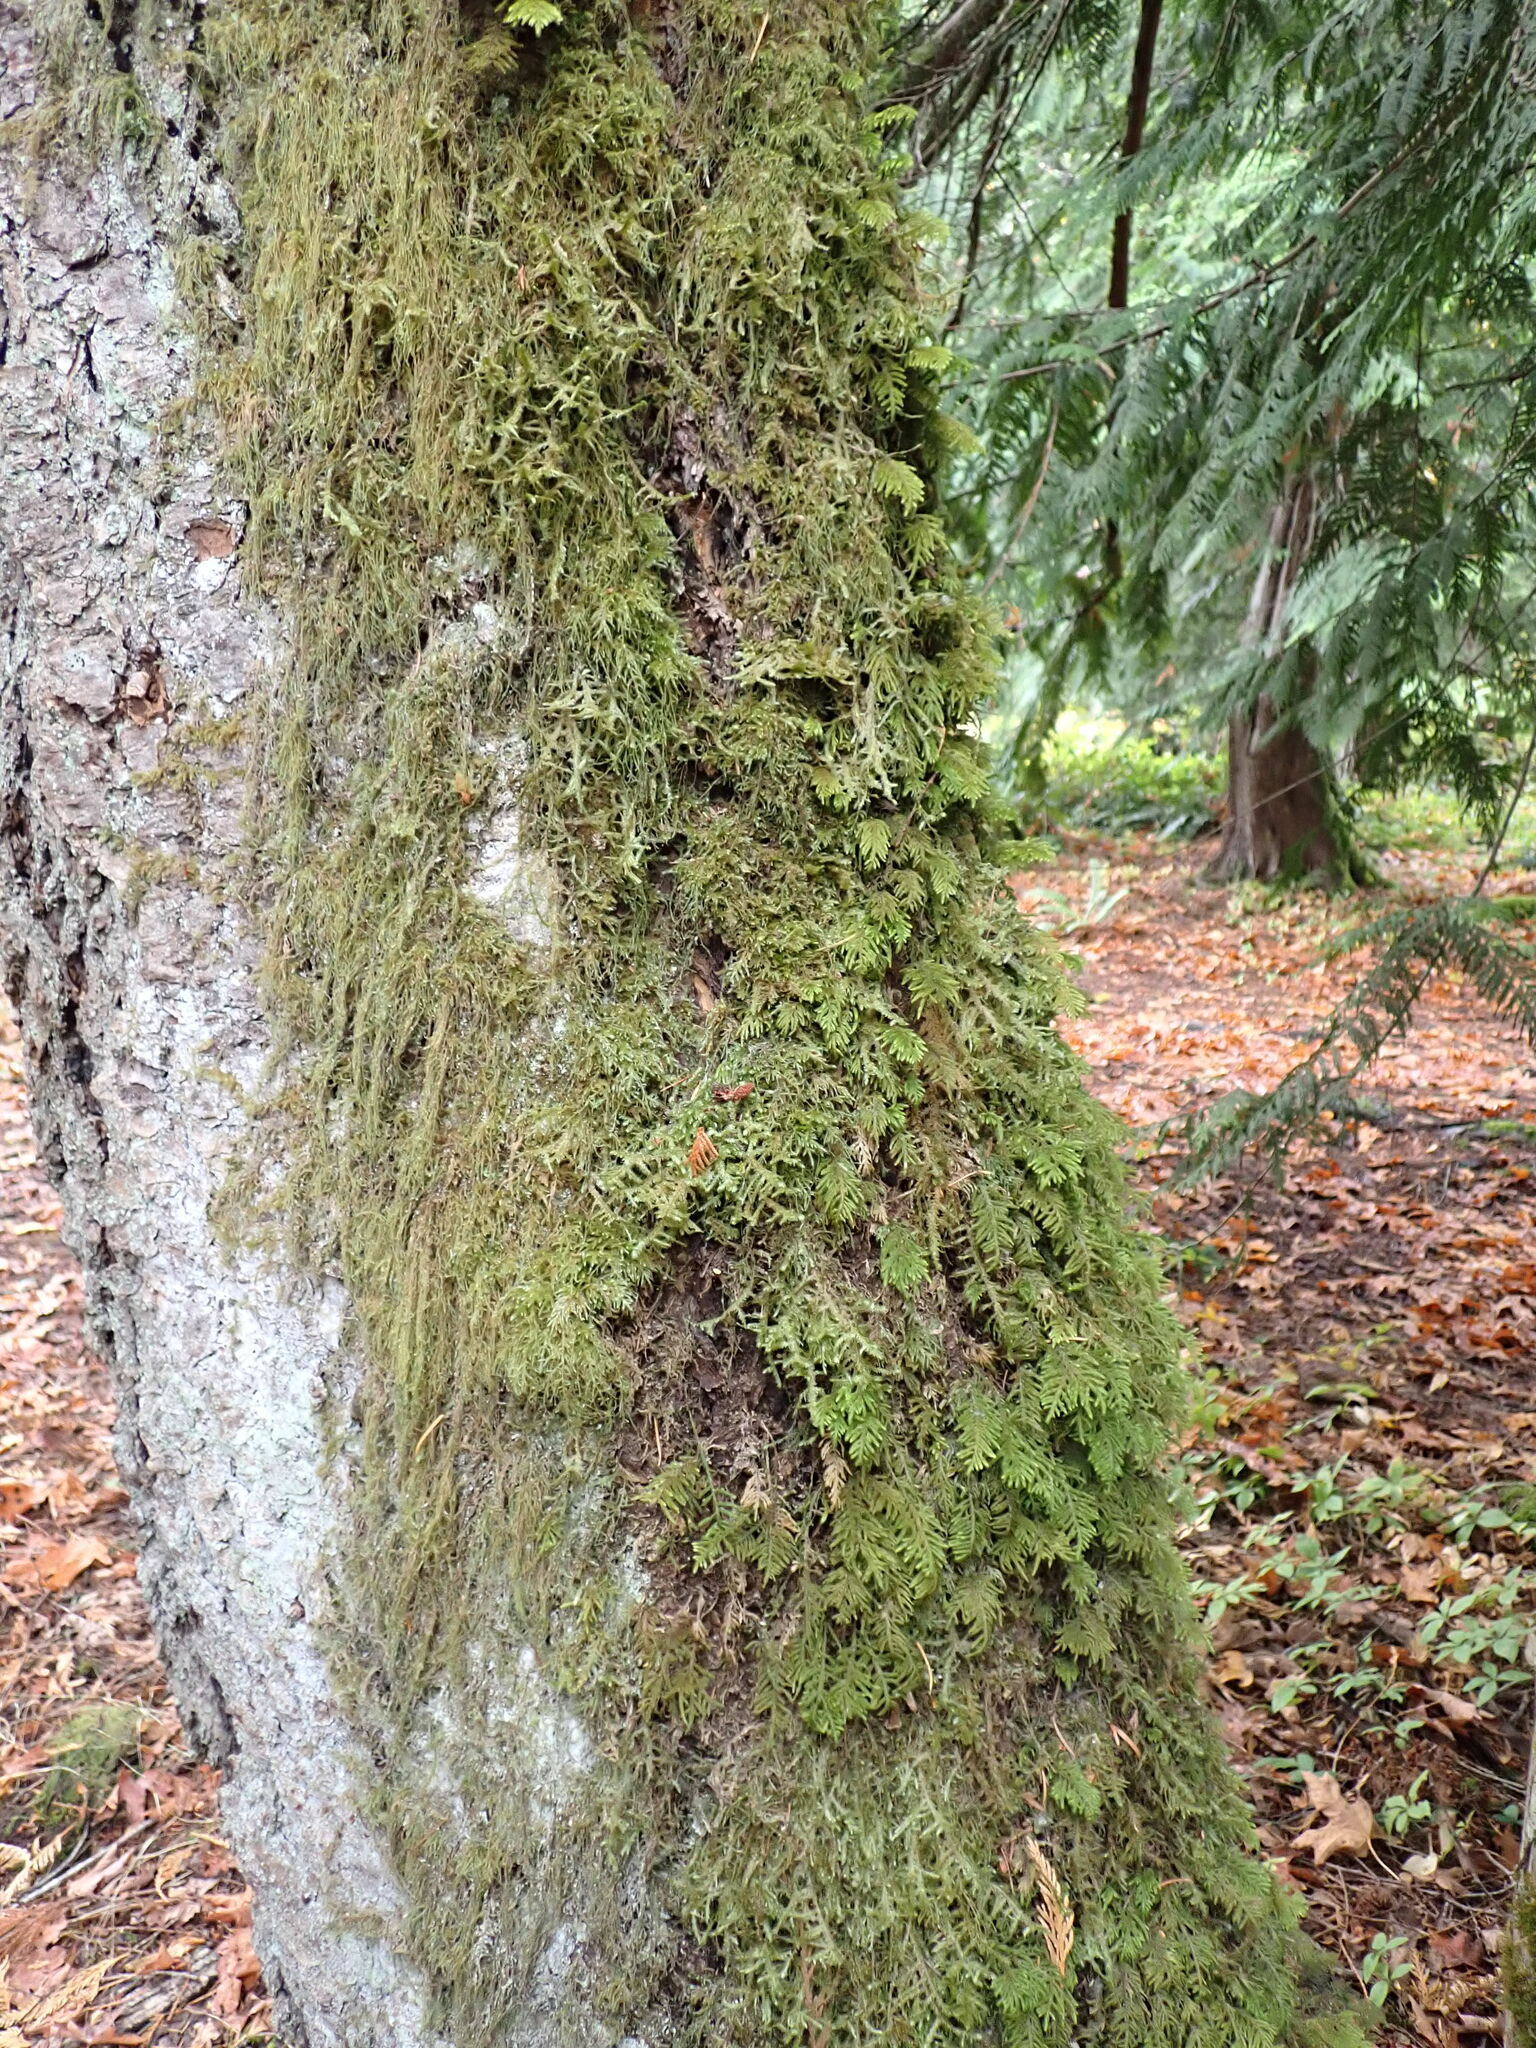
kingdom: Plantae
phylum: Bryophyta
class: Bryopsida
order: Hypnales
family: Cryphaeaceae
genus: Dendroalsia
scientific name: Dendroalsia abietina
